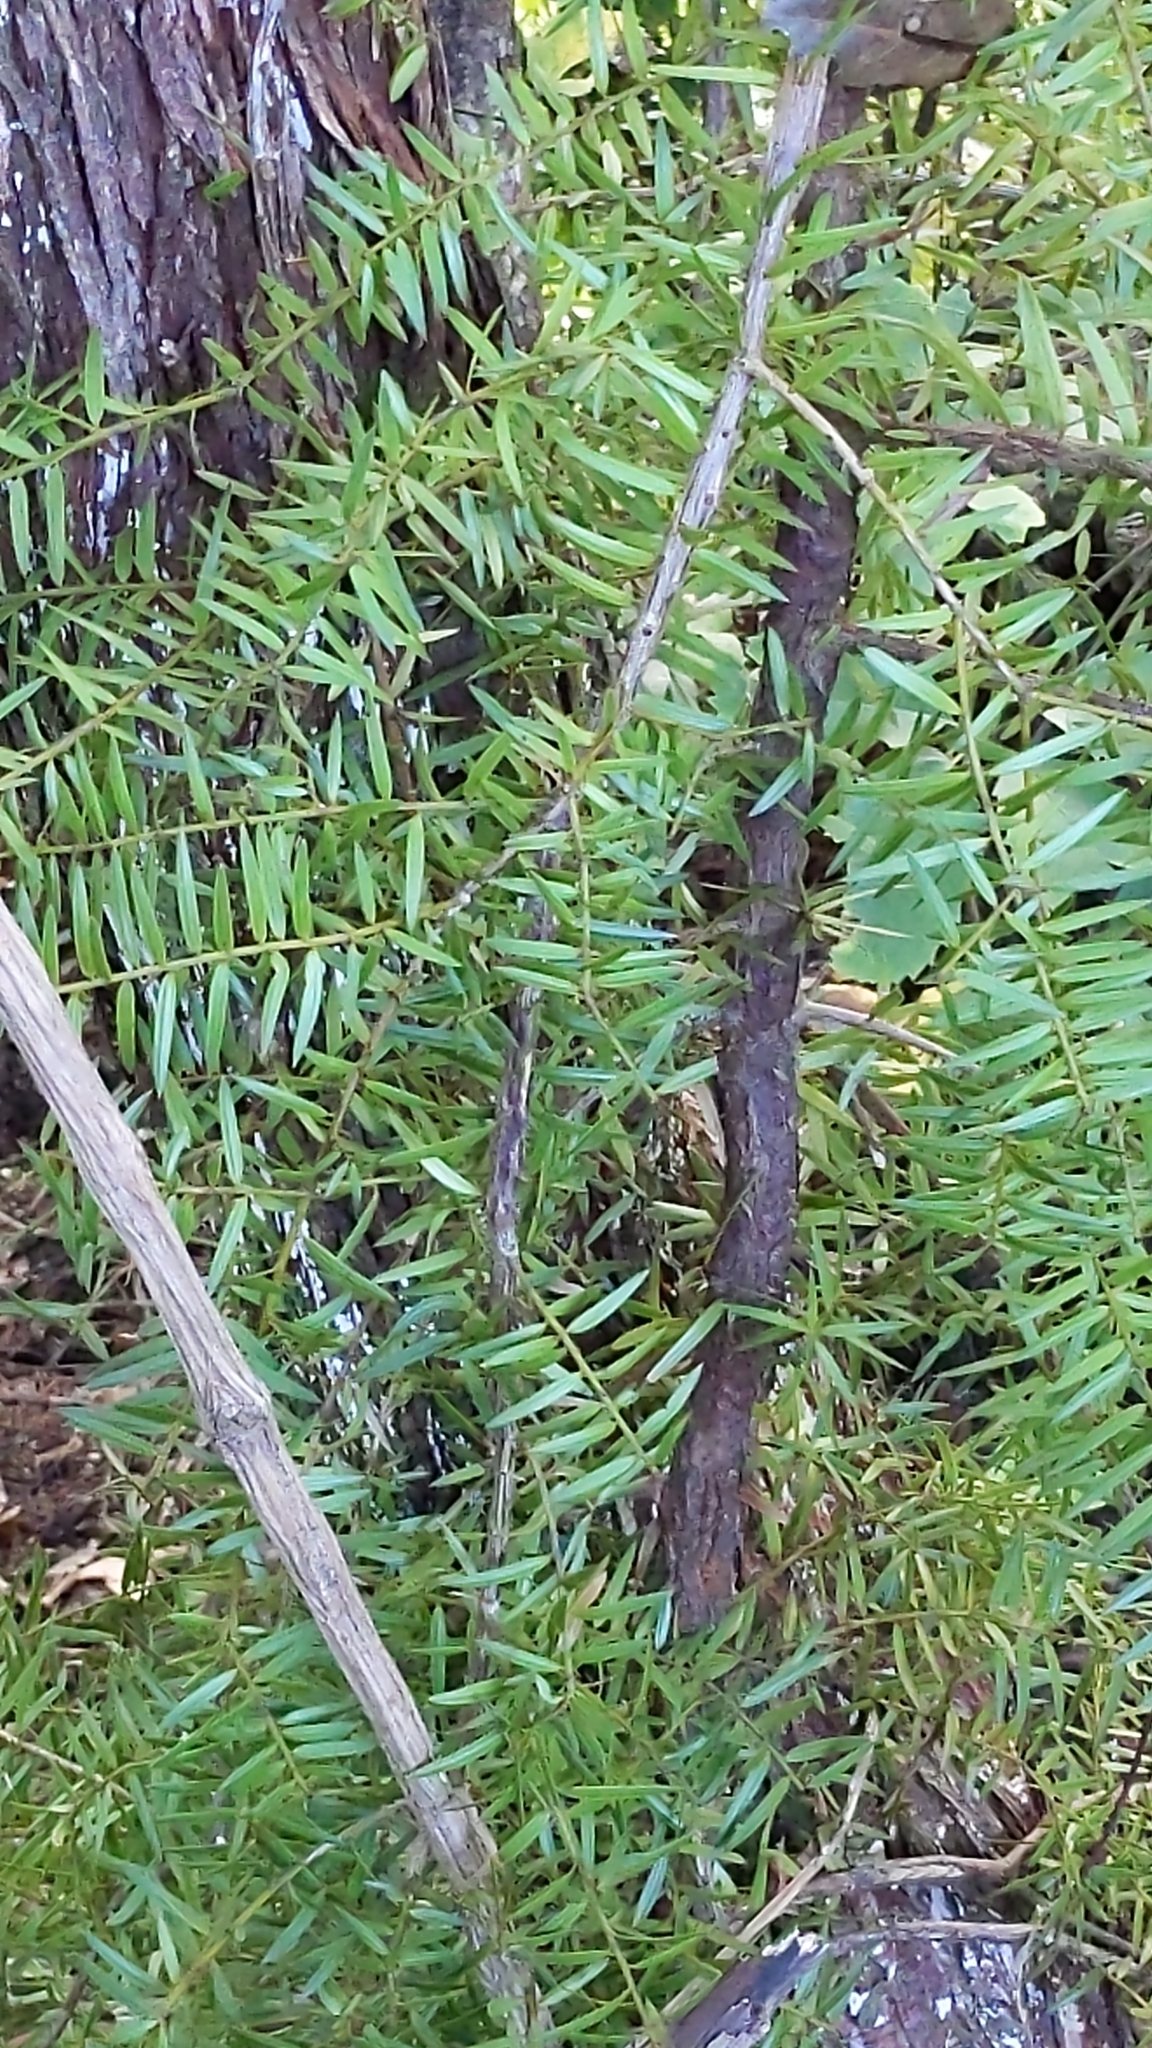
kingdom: Plantae
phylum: Tracheophyta
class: Pinopsida
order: Pinales
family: Podocarpaceae
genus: Podocarpus
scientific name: Podocarpus totara
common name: Totara
